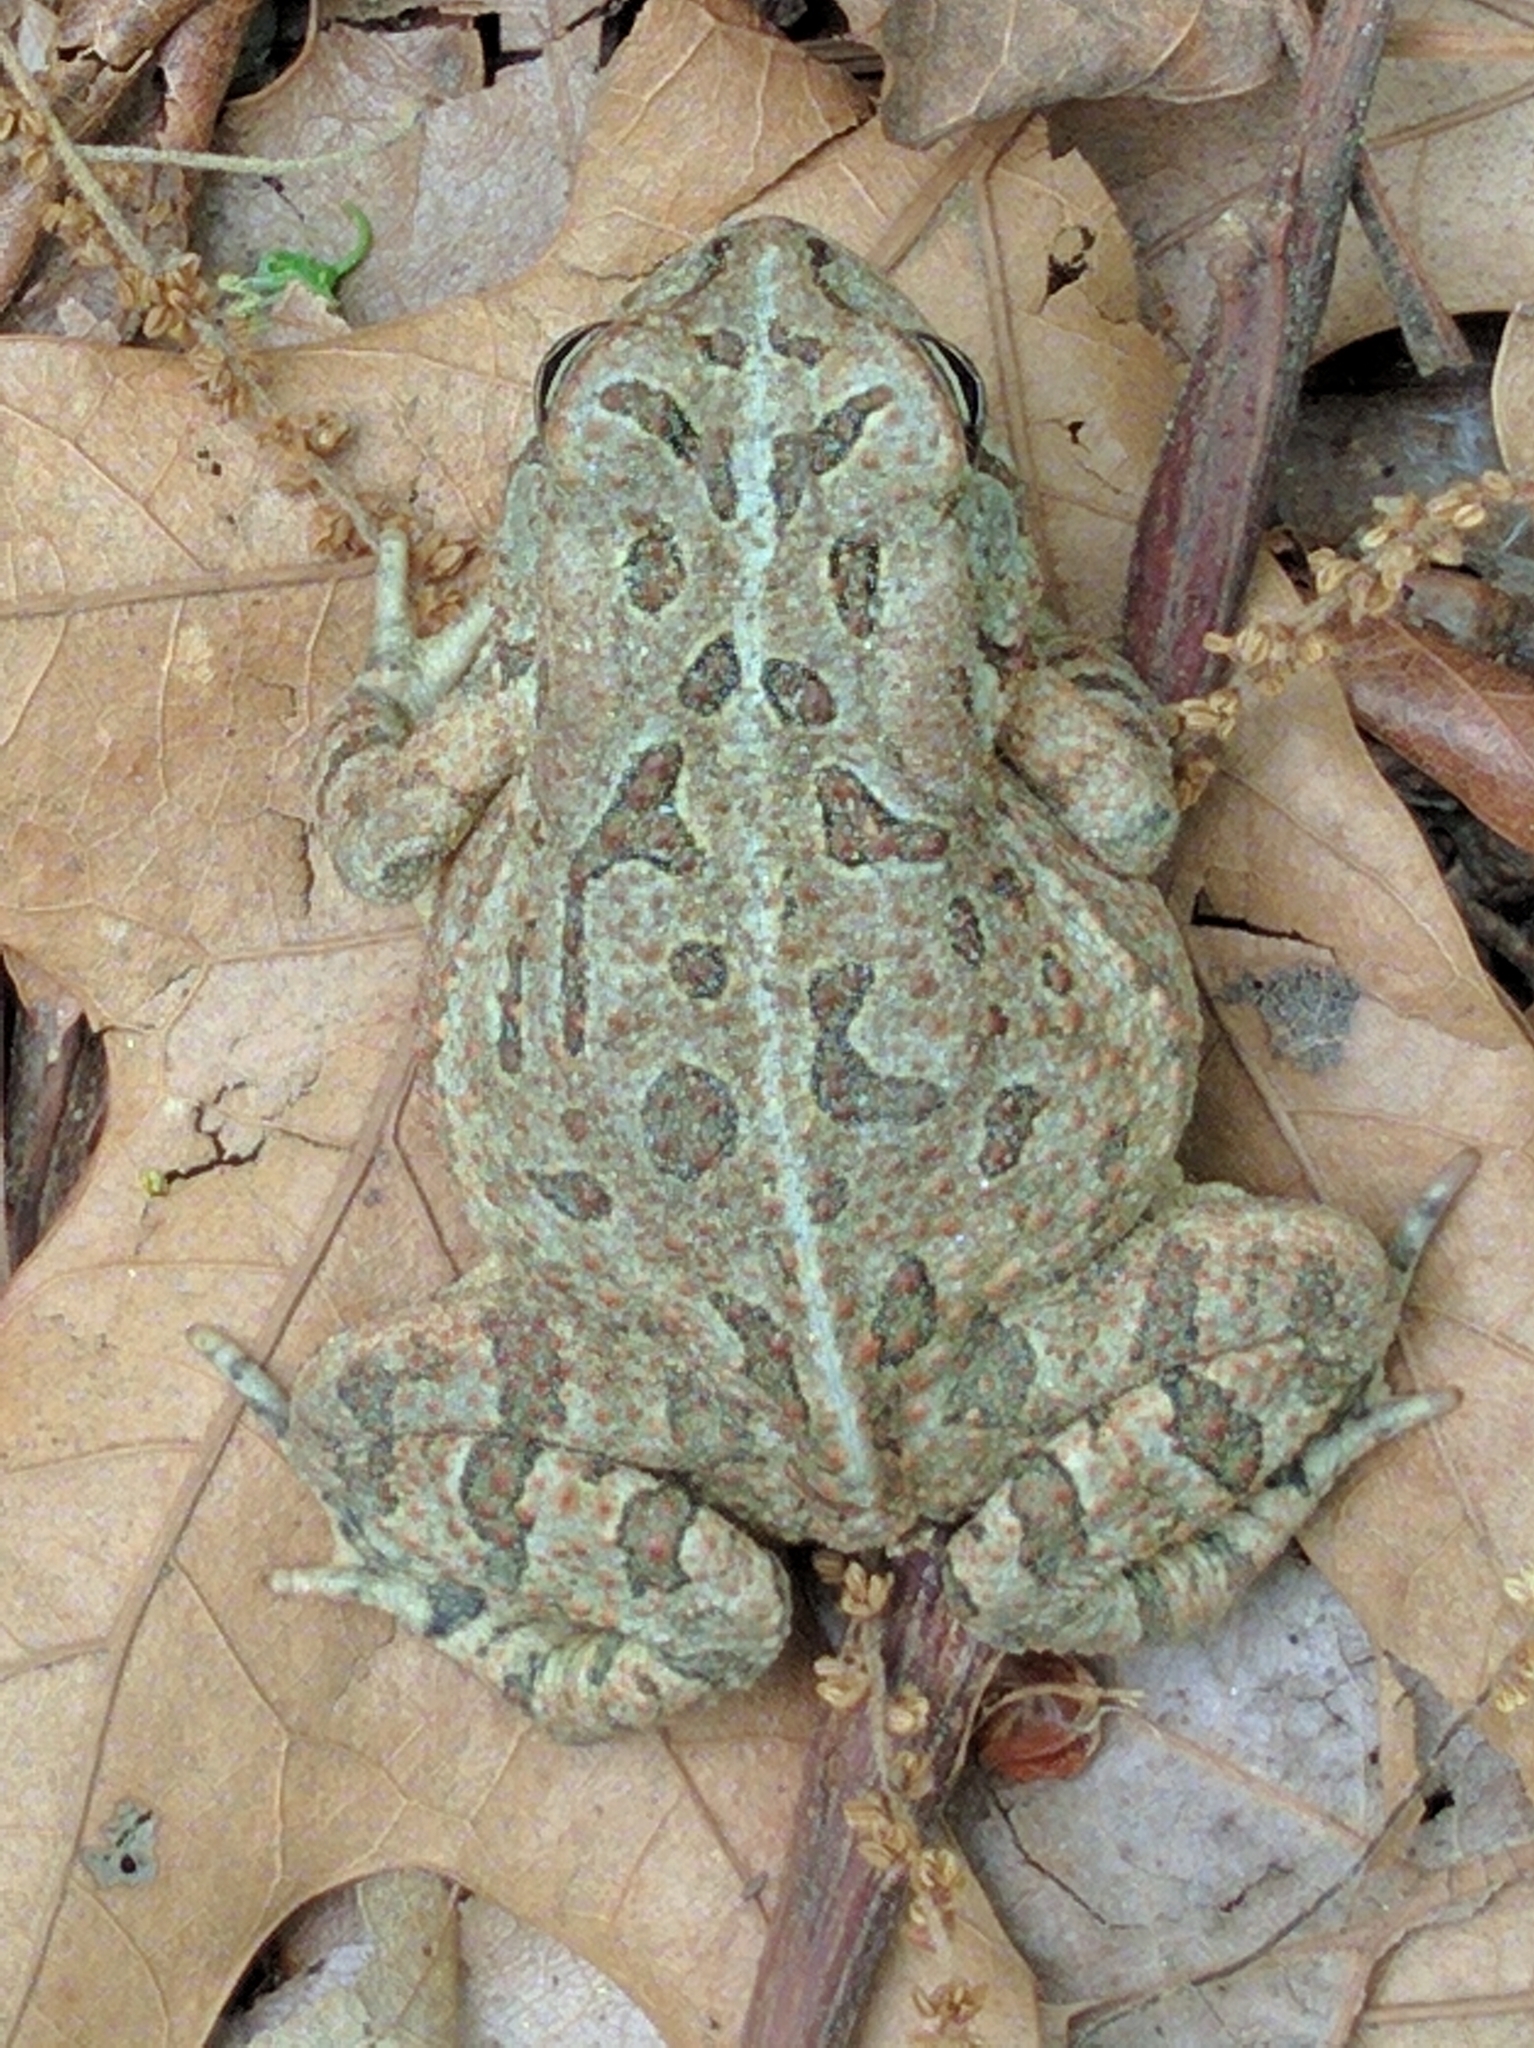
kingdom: Animalia
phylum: Chordata
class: Amphibia
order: Anura
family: Bufonidae
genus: Anaxyrus
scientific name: Anaxyrus fowleri
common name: Fowler's toad
